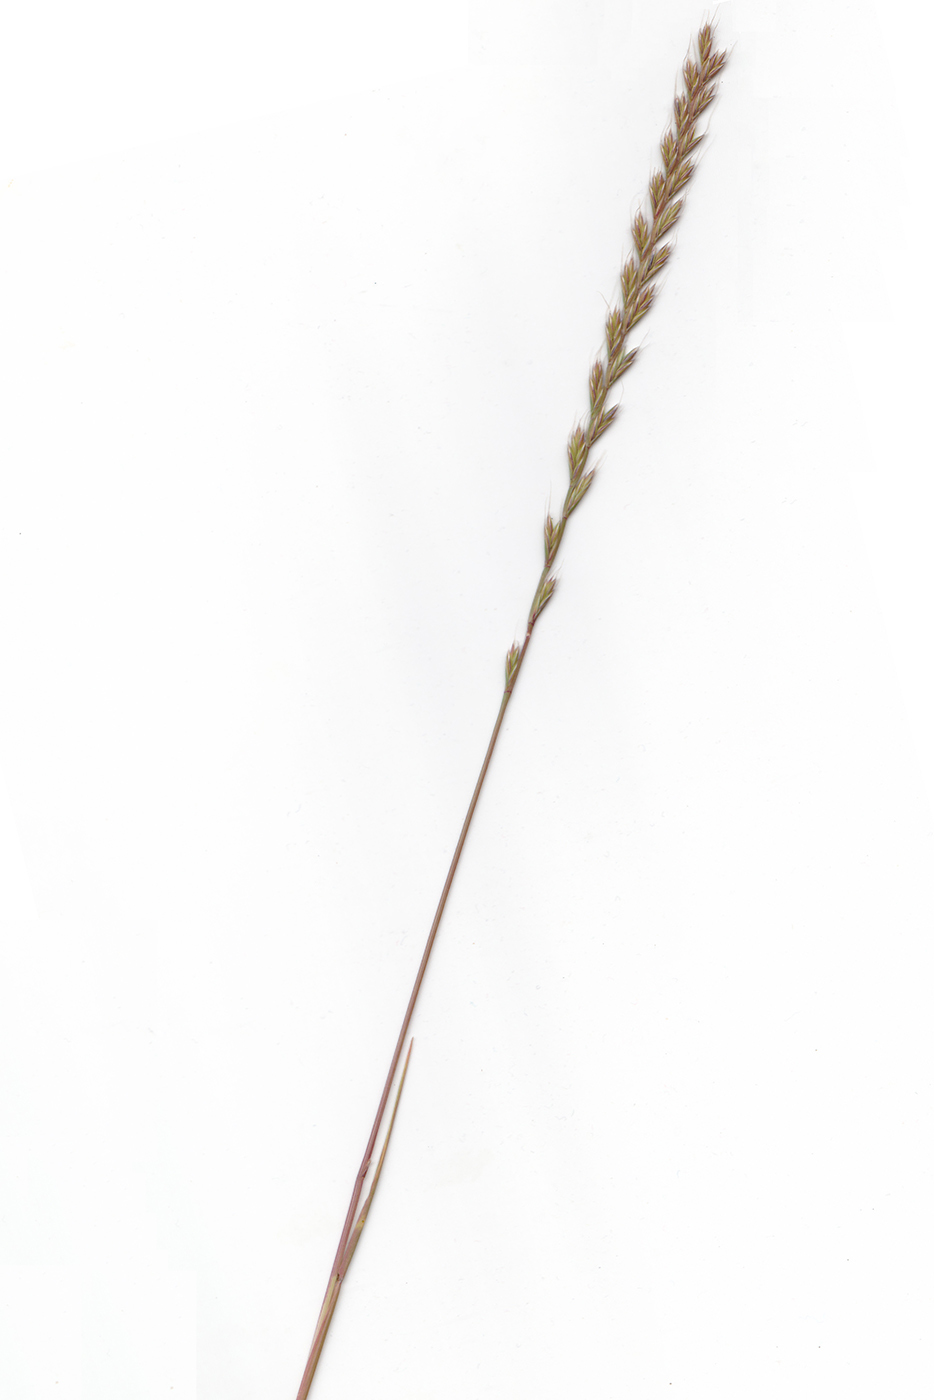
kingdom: Plantae
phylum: Tracheophyta
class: Liliopsida
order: Poales
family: Poaceae
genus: Lolium
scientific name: Lolium multiflorum
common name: Annual ryegrass
